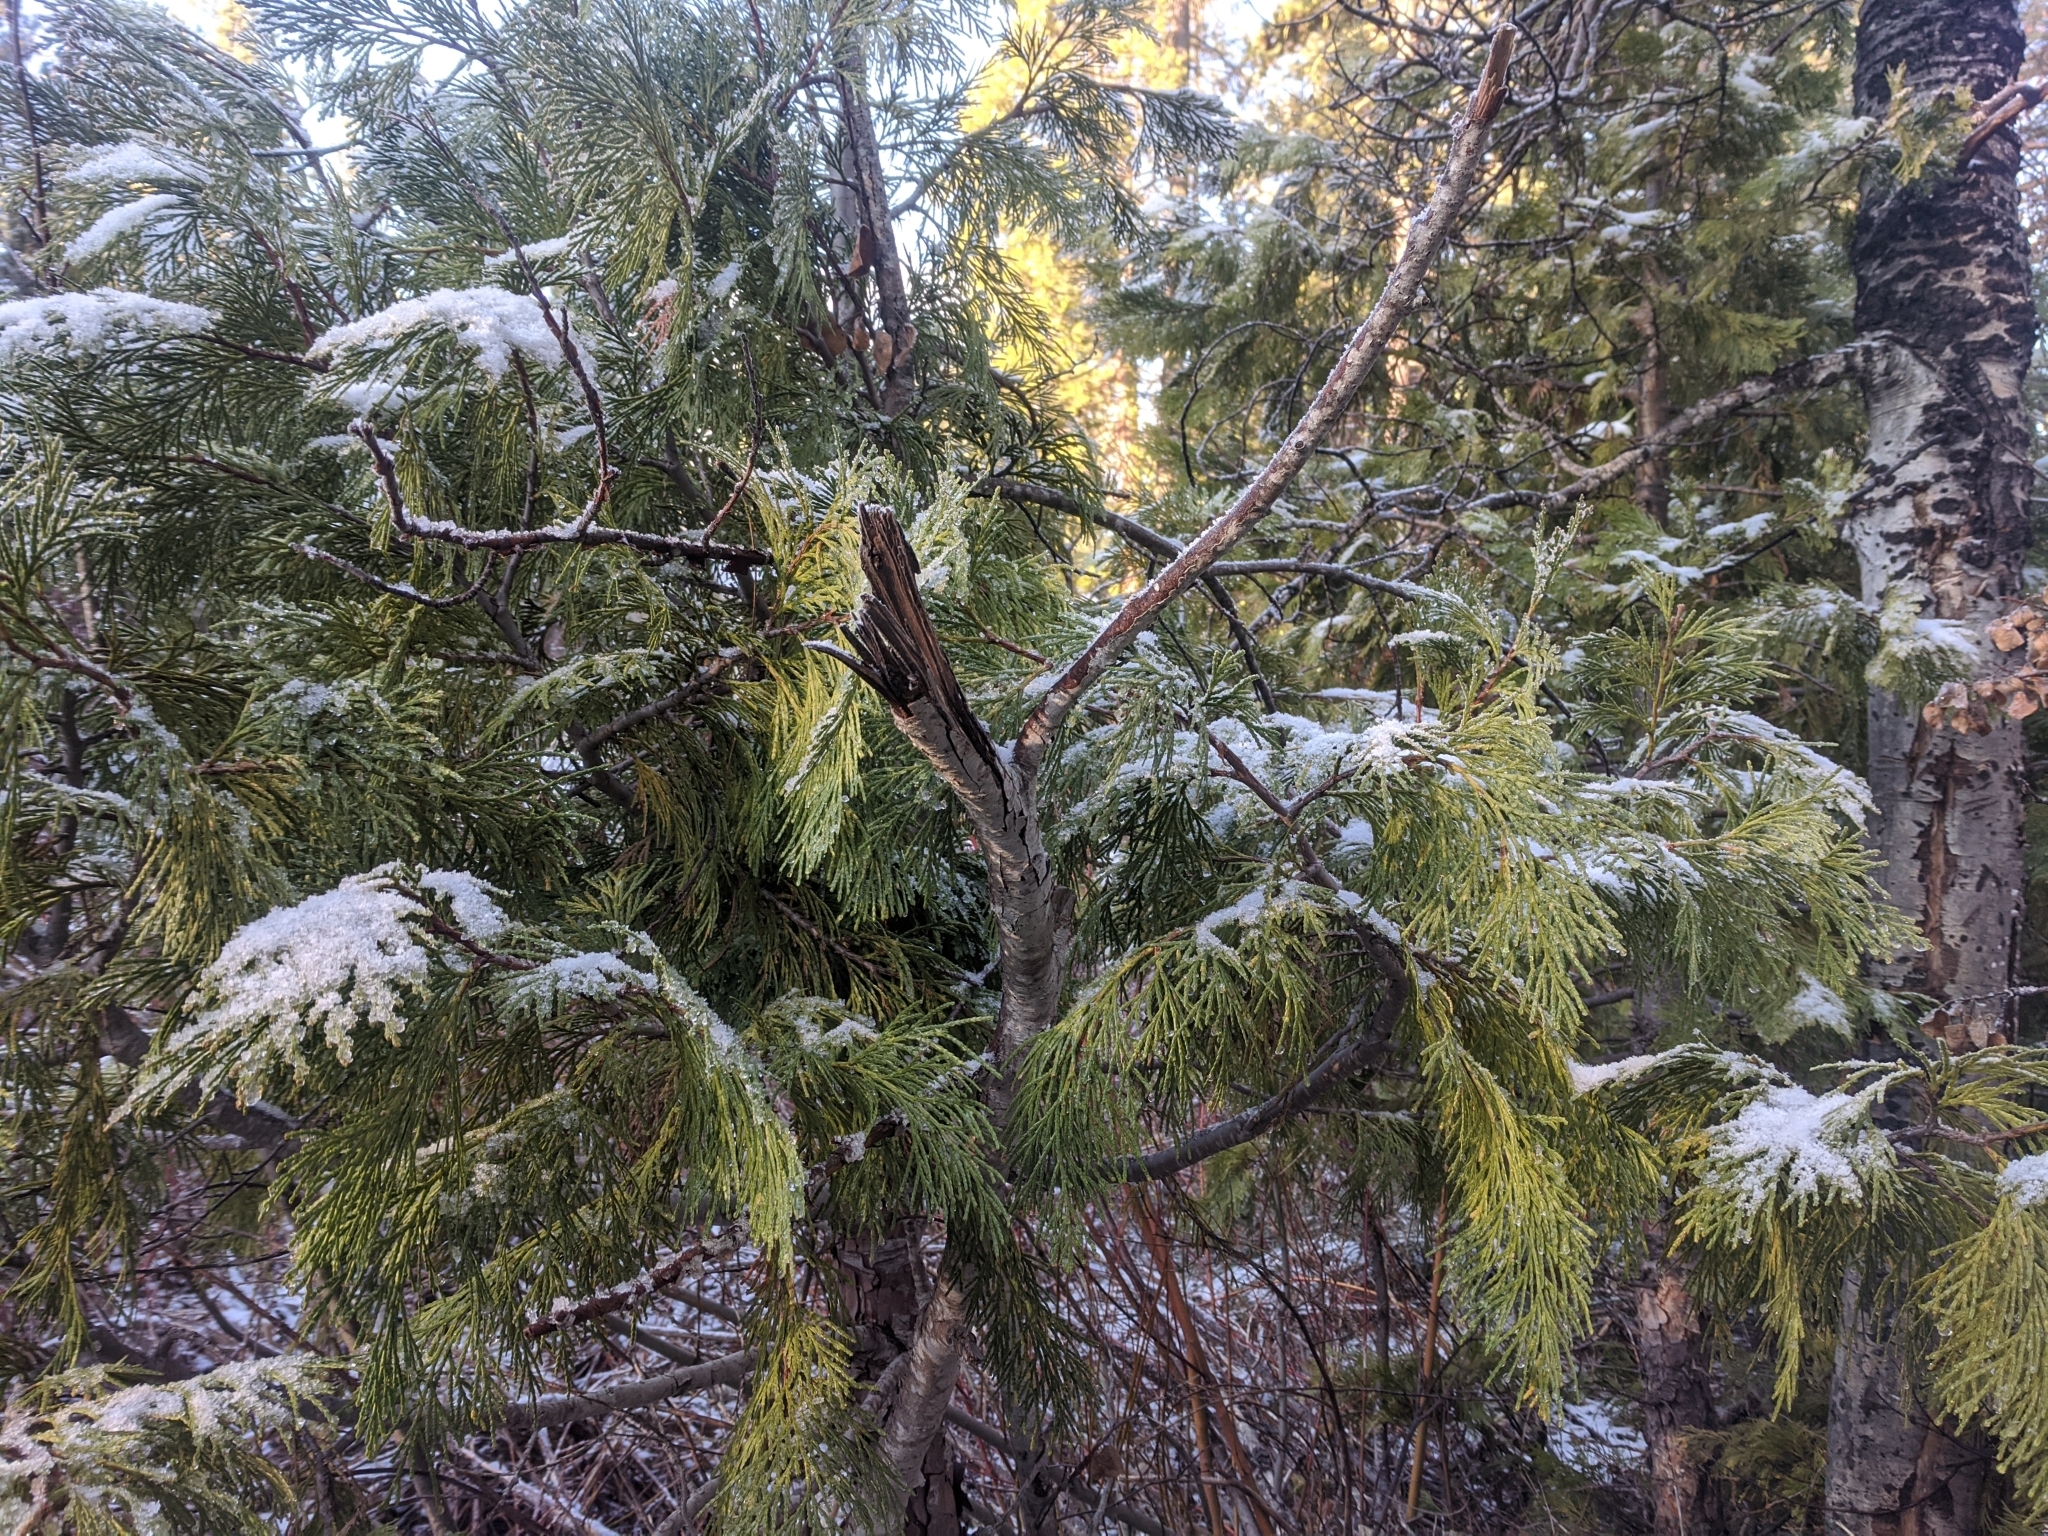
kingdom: Plantae
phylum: Tracheophyta
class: Pinopsida
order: Pinales
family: Cupressaceae
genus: Calocedrus
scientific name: Calocedrus decurrens
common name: Californian incense-cedar
